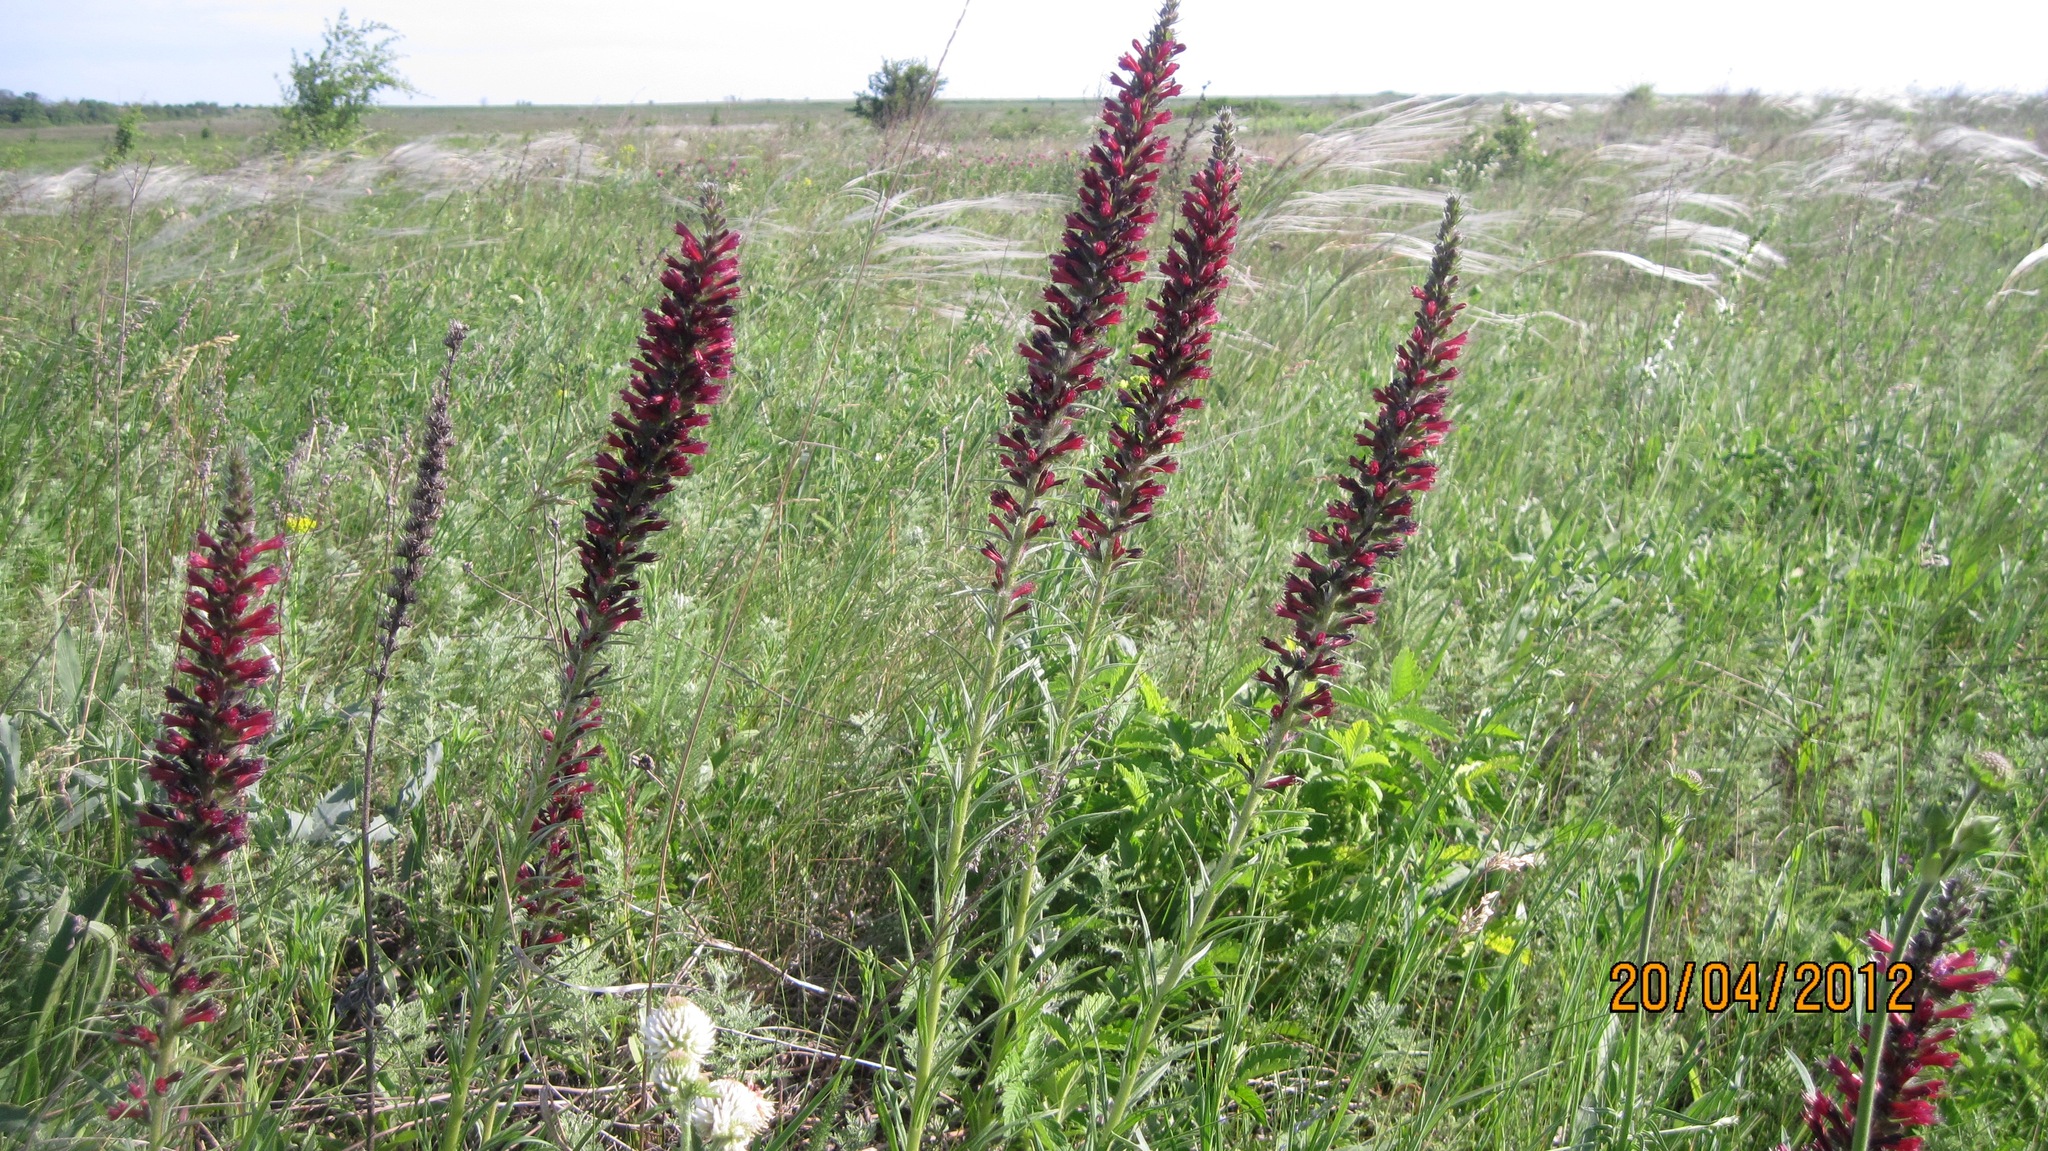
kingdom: Plantae
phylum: Tracheophyta
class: Magnoliopsida
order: Boraginales
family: Boraginaceae
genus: Pontechium
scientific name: Pontechium maculatum
